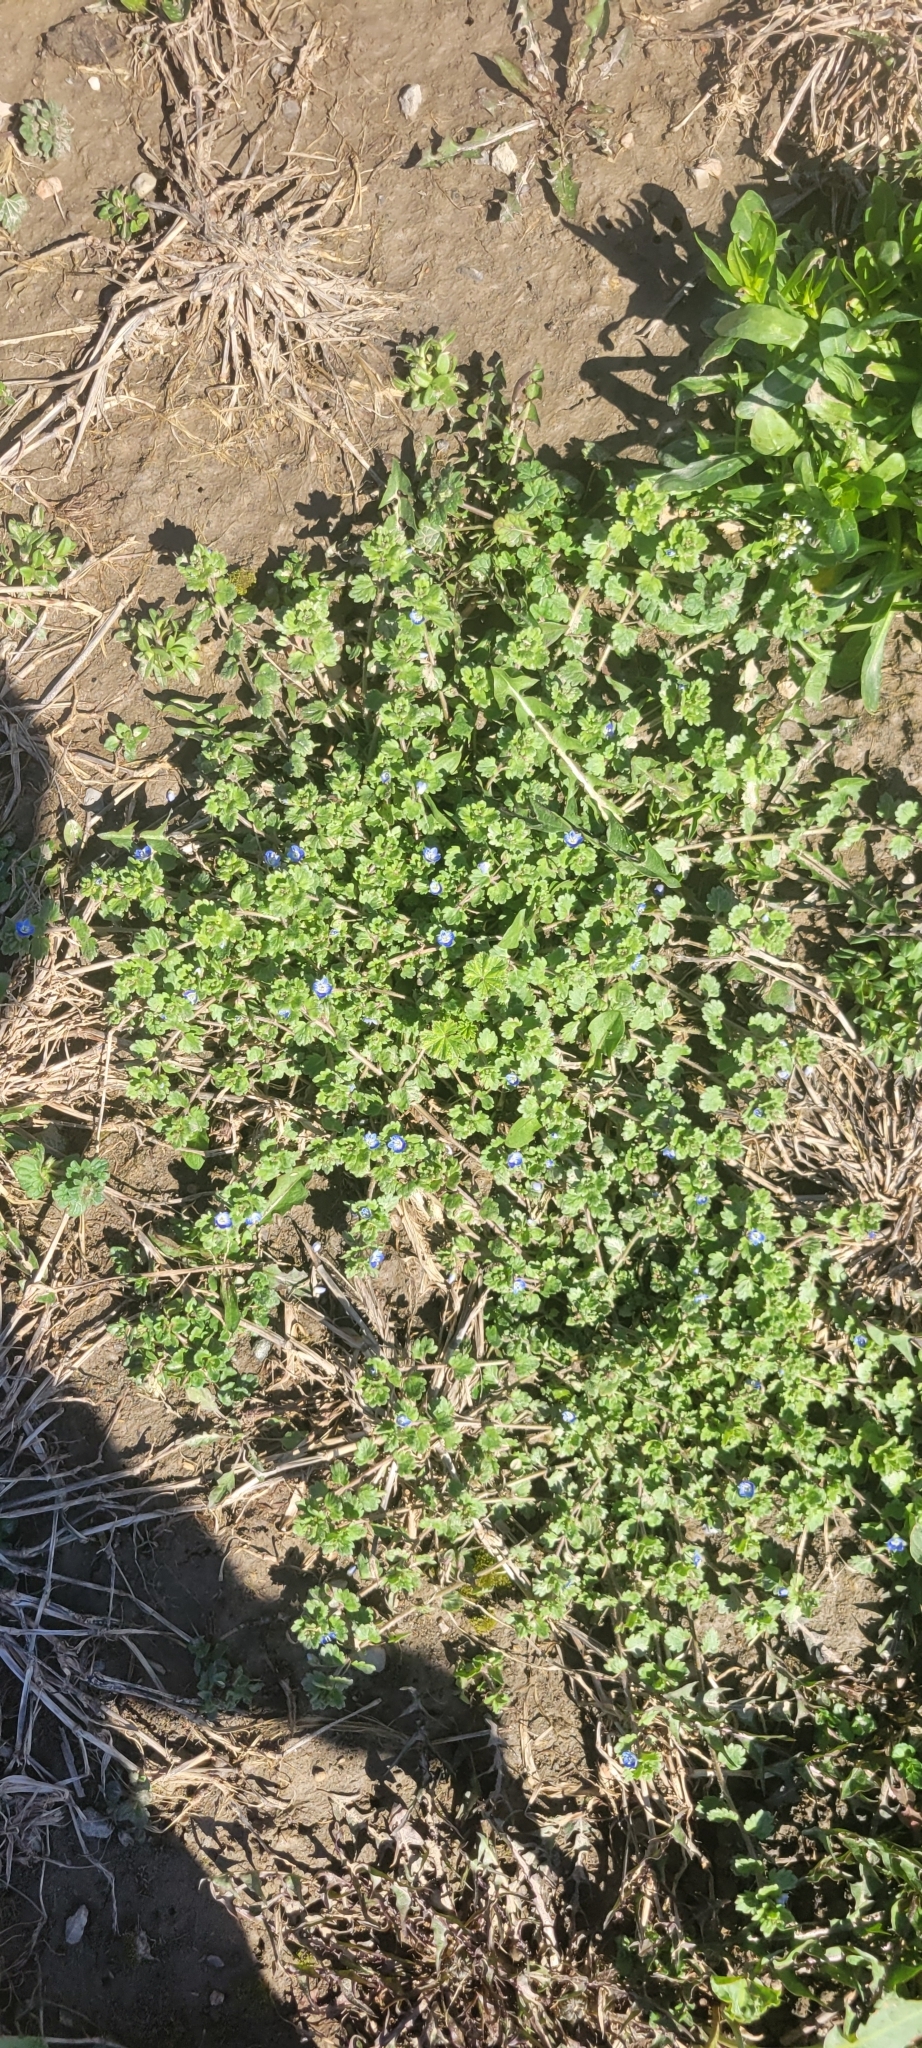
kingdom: Plantae
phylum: Tracheophyta
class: Magnoliopsida
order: Lamiales
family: Plantaginaceae
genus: Veronica
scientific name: Veronica polita
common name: Grey field-speedwell
